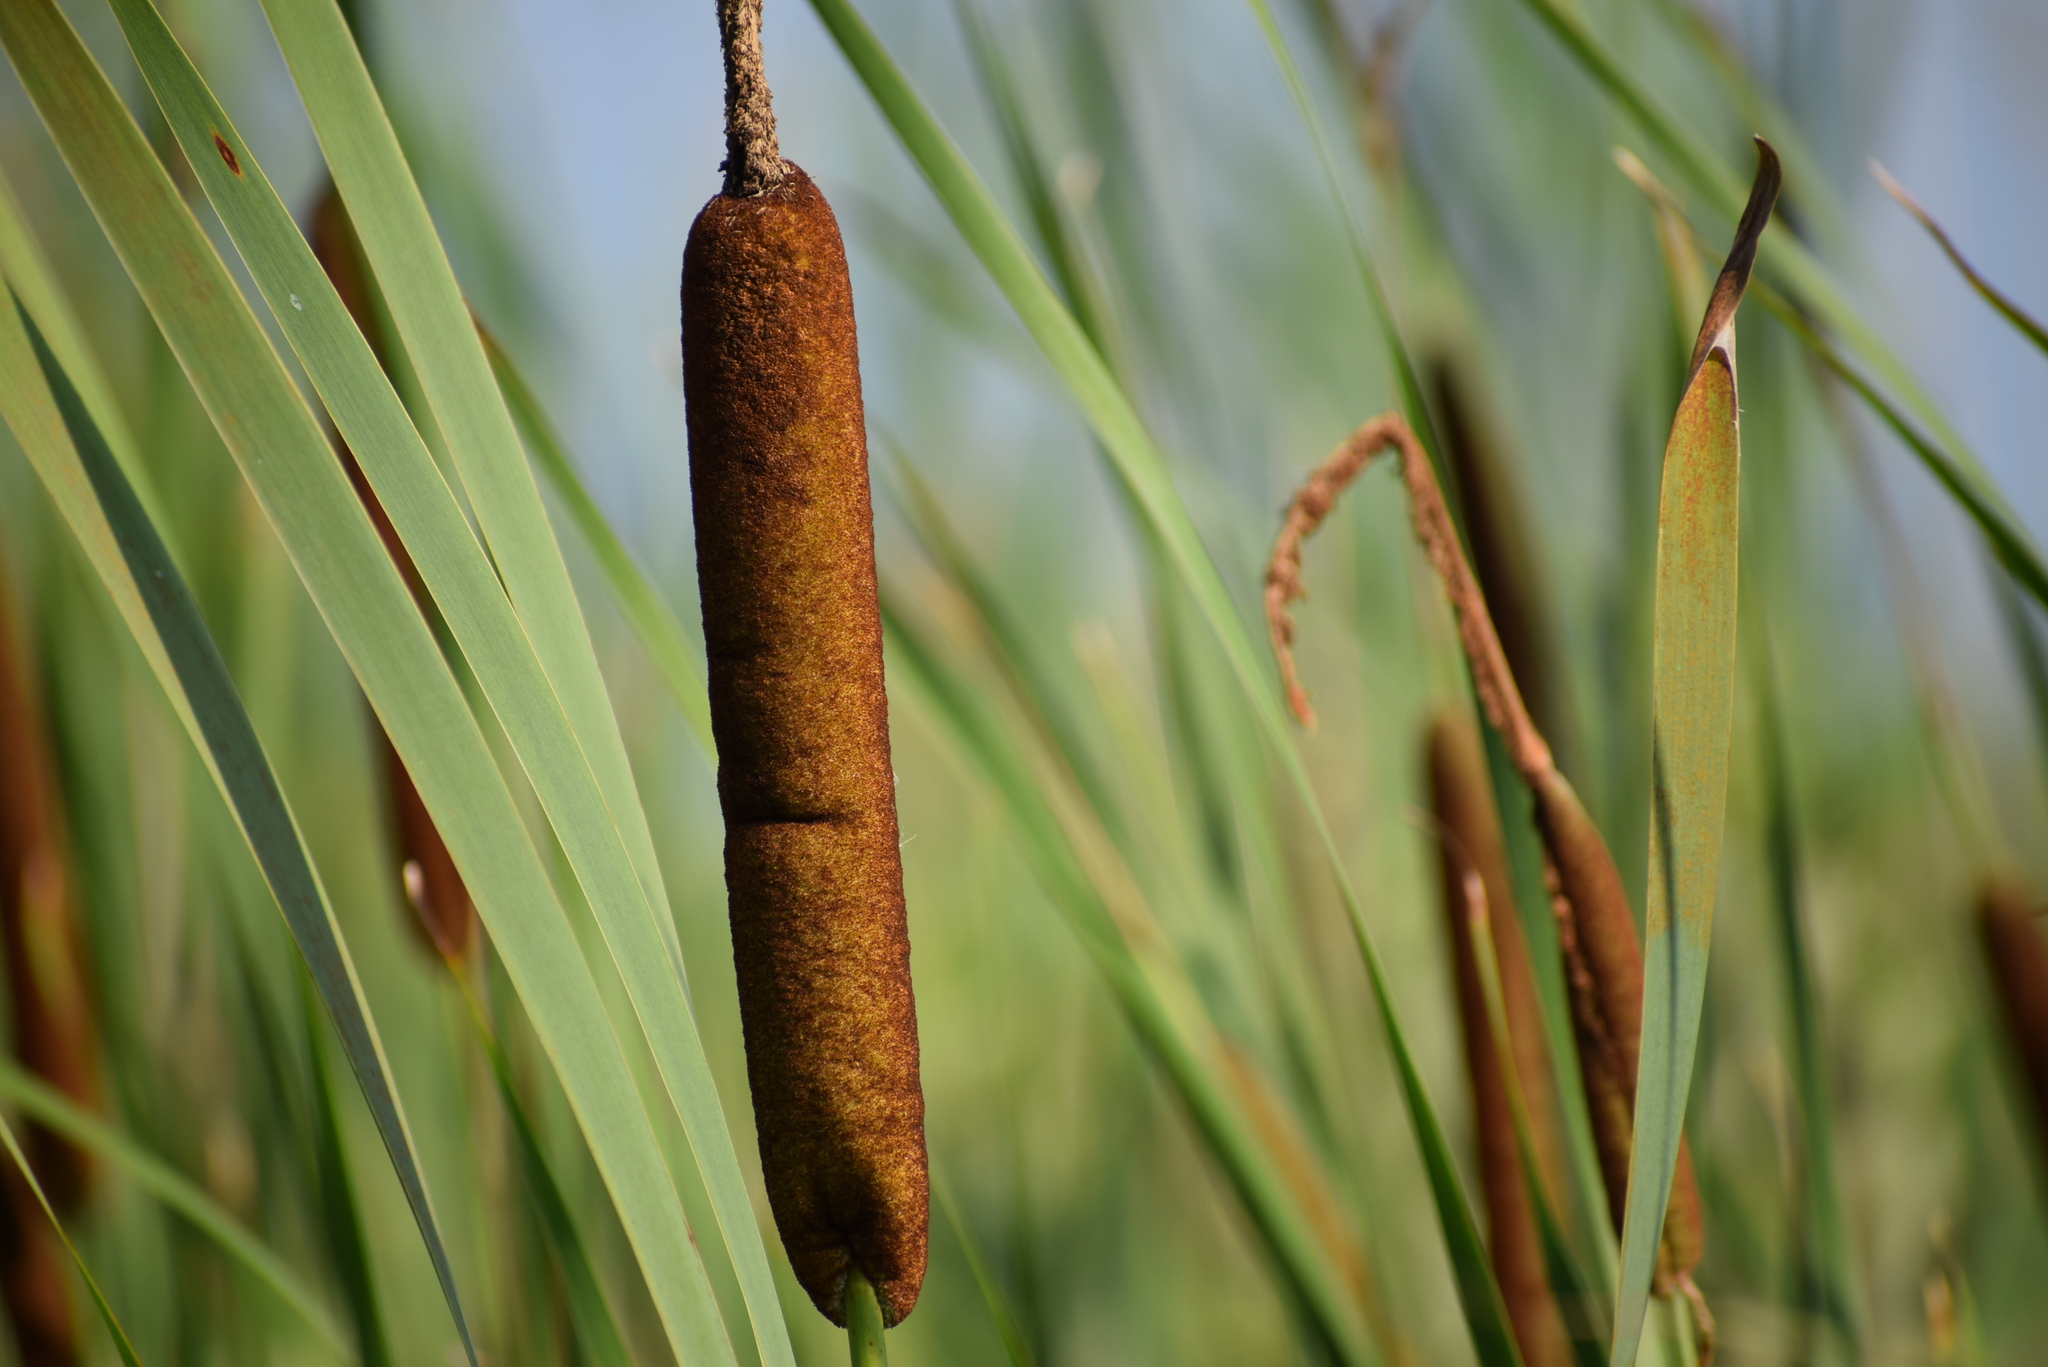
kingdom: Plantae
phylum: Tracheophyta
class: Liliopsida
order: Poales
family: Typhaceae
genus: Typha
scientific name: Typha latifolia
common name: Broadleaf cattail
